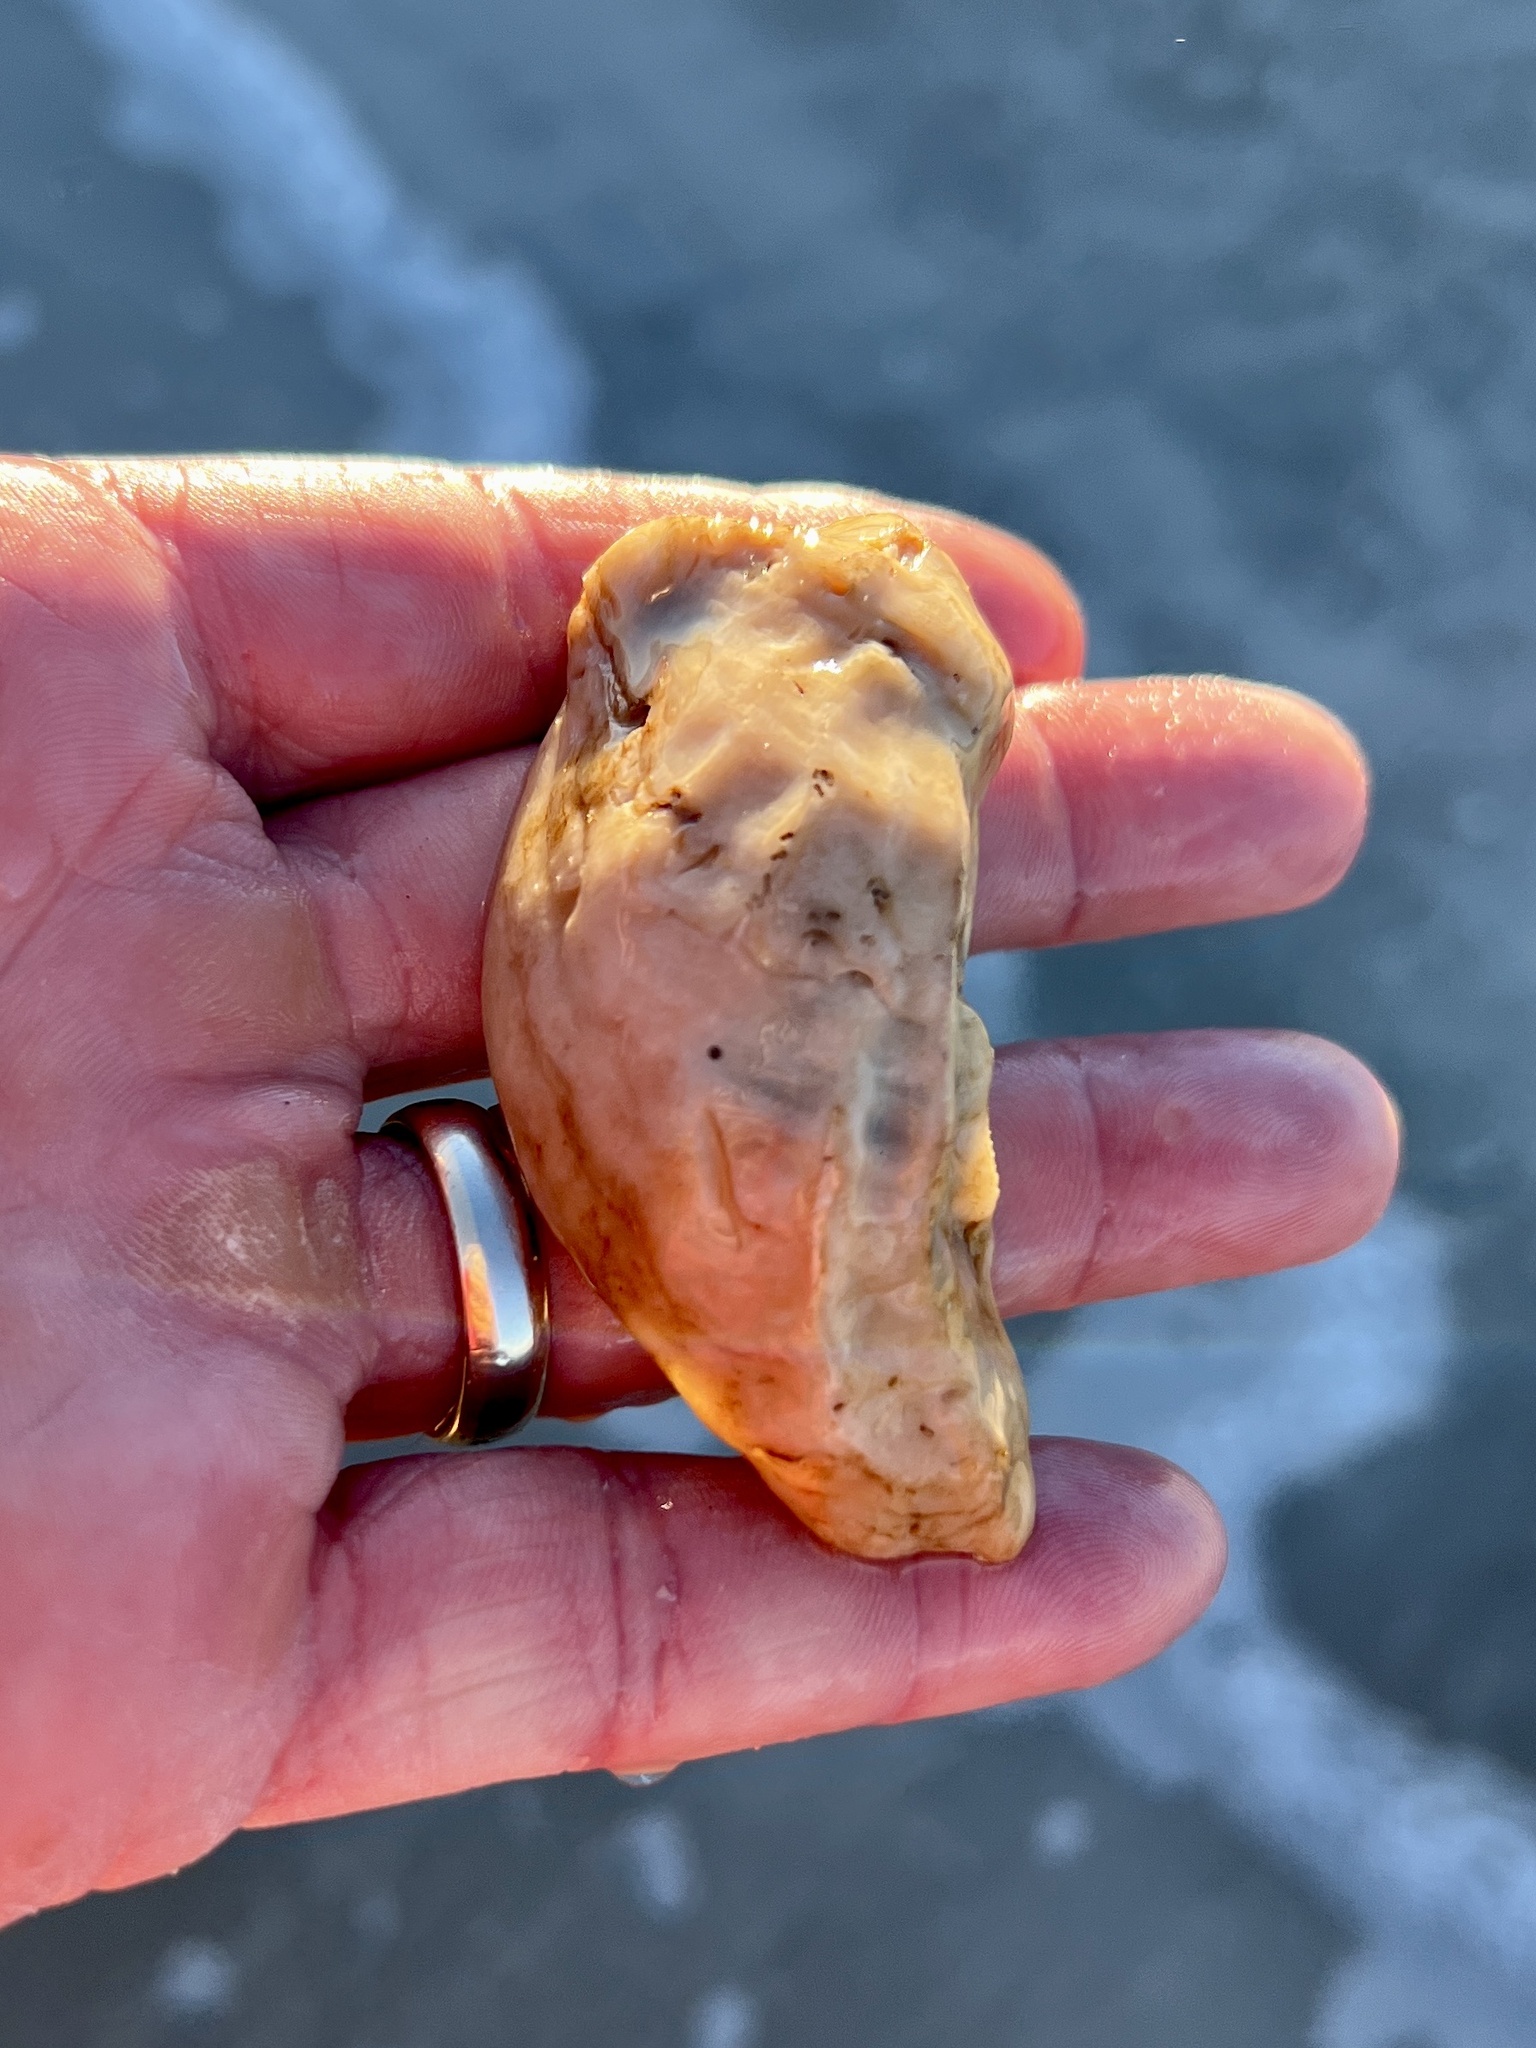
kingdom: Animalia
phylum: Mollusca
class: Bivalvia
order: Ostreida
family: Ostreidae
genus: Crassostrea
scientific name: Crassostrea virginica
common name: American oyster
